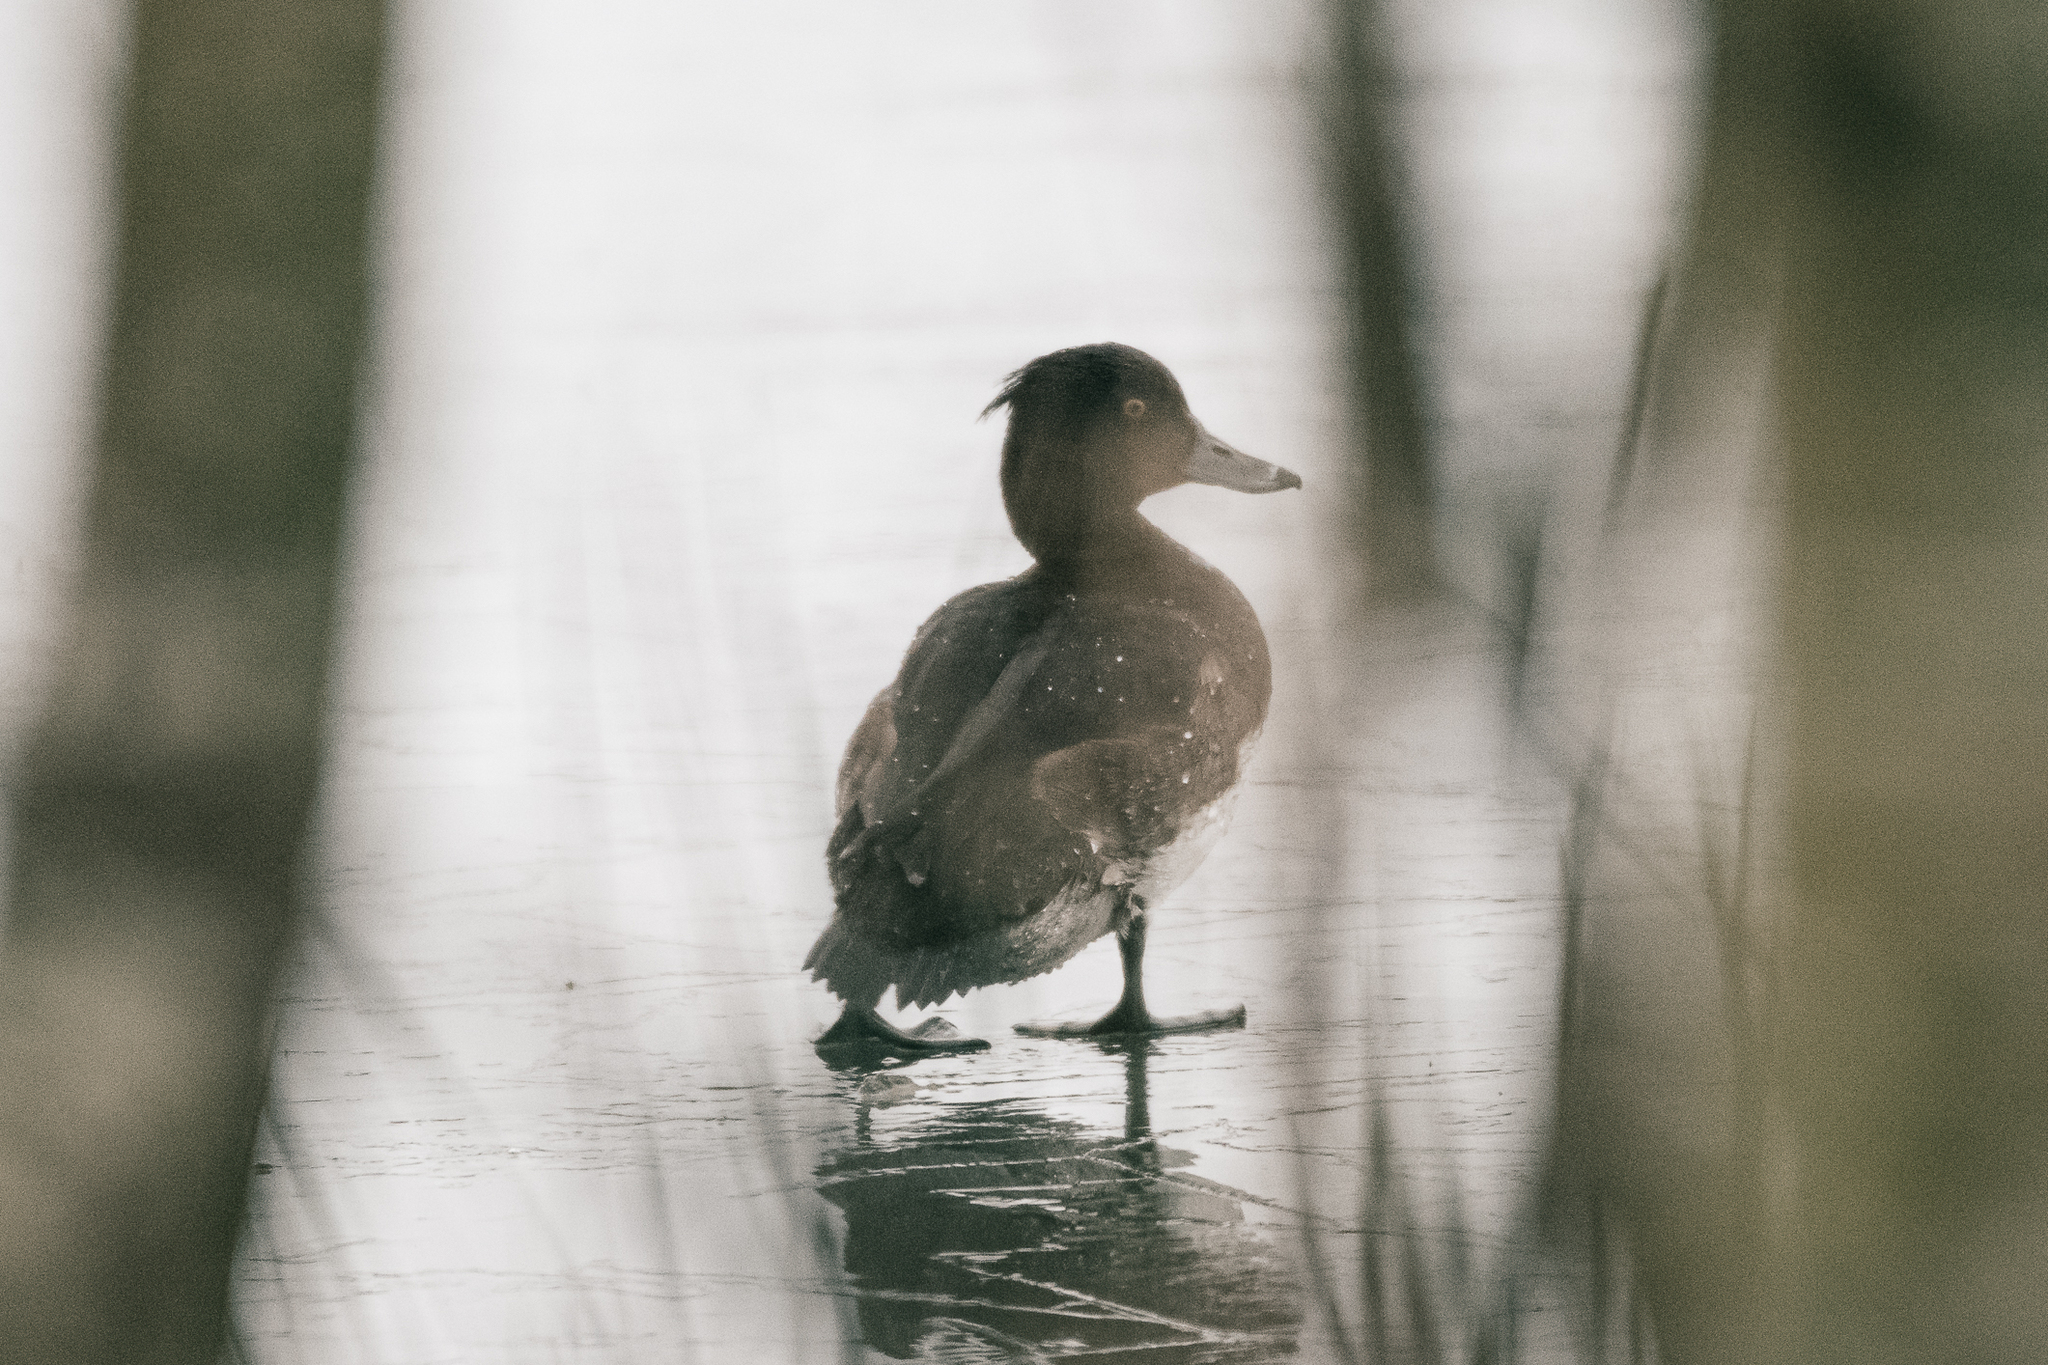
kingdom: Animalia
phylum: Chordata
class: Aves
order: Anseriformes
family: Anatidae
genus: Aythya
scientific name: Aythya fuligula
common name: Tufted duck
